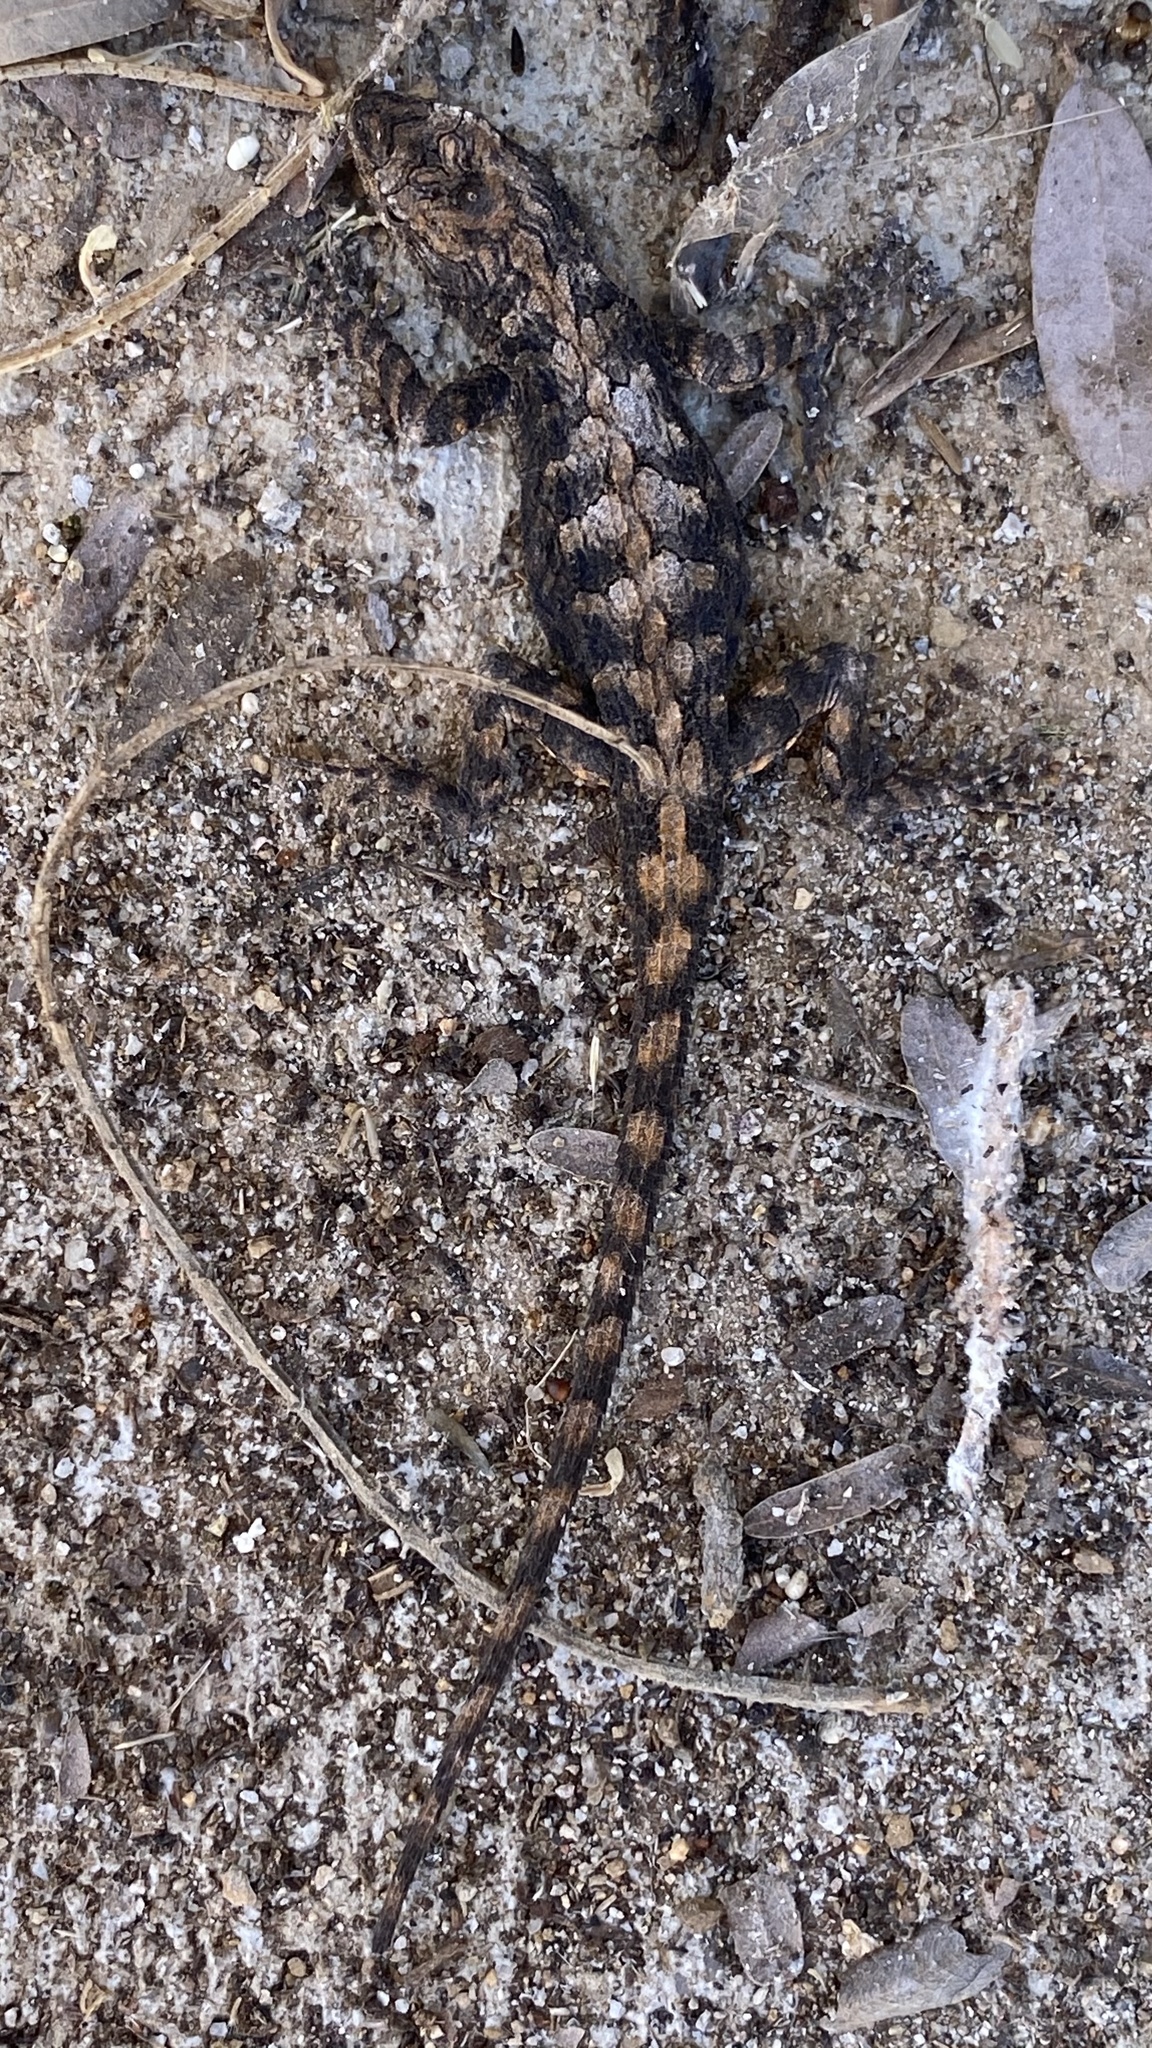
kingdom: Animalia
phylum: Chordata
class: Squamata
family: Phrynosomatidae
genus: Urosaurus
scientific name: Urosaurus ornatus
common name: Ornate tree lizard
